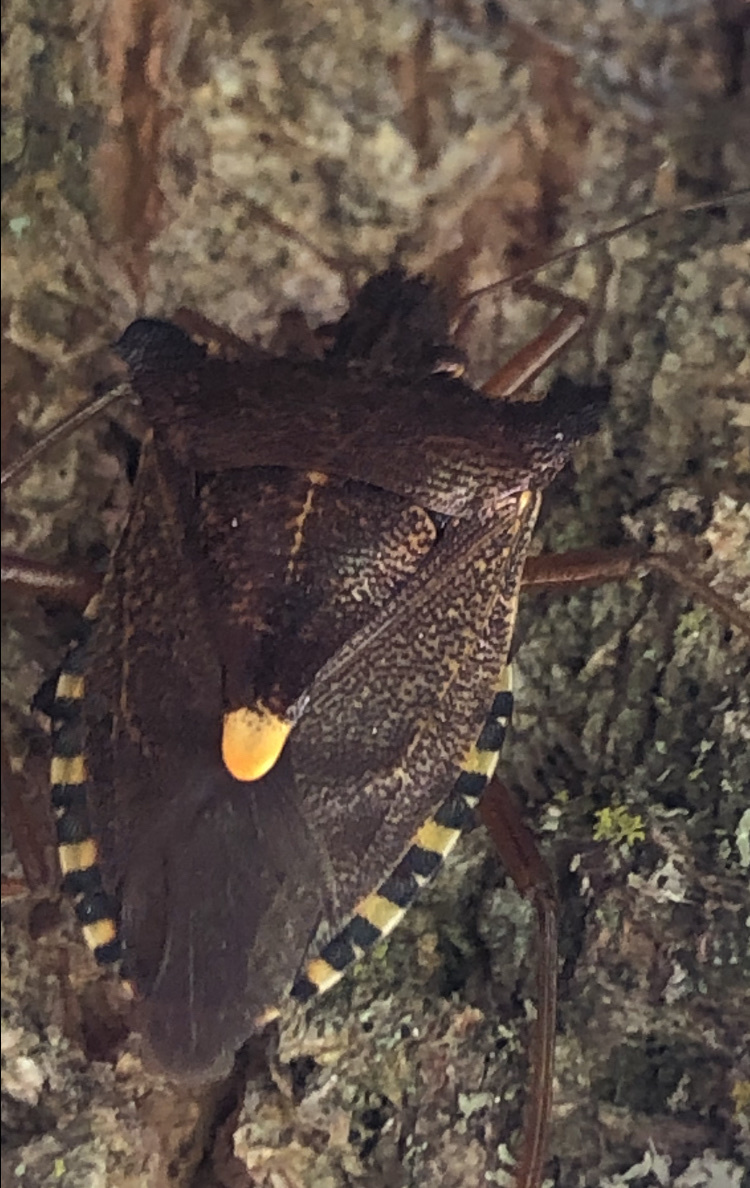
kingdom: Animalia
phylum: Arthropoda
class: Insecta
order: Hemiptera
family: Pentatomidae
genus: Pentatoma
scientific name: Pentatoma rufipes
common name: Forest bug
